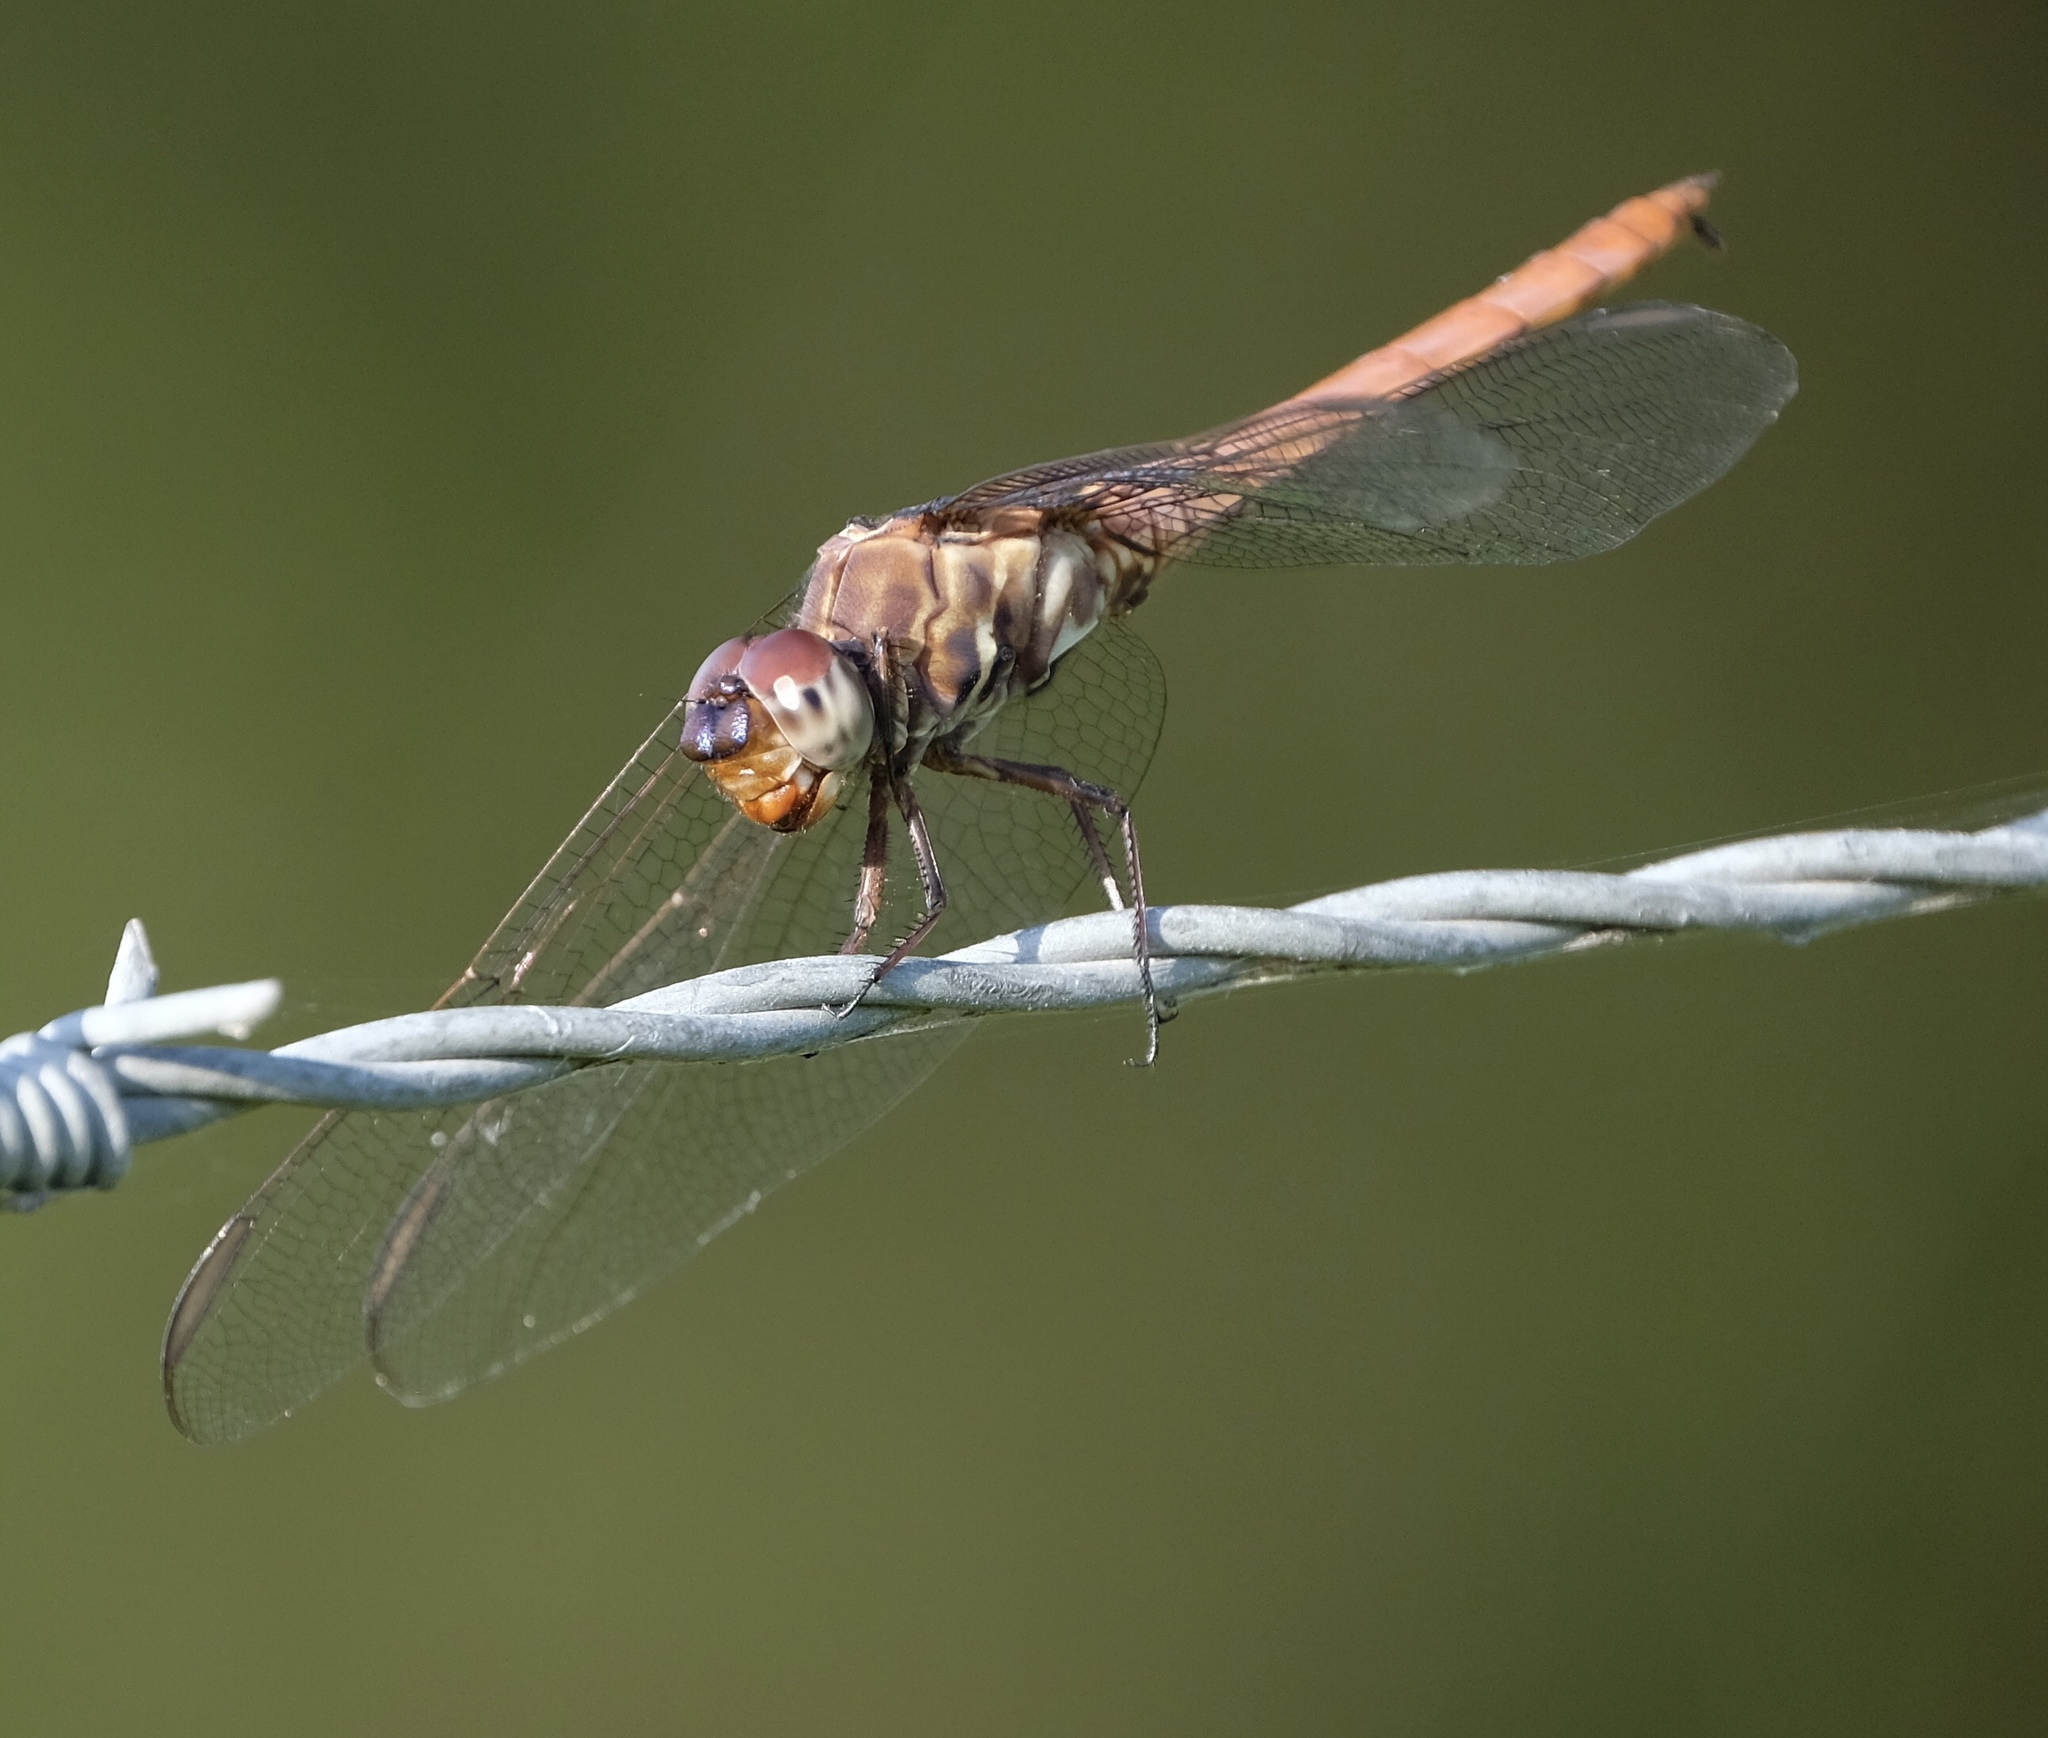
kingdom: Animalia
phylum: Arthropoda
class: Insecta
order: Odonata
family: Libellulidae
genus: Orthemis
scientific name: Orthemis ferruginea
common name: Roseate skimmer
